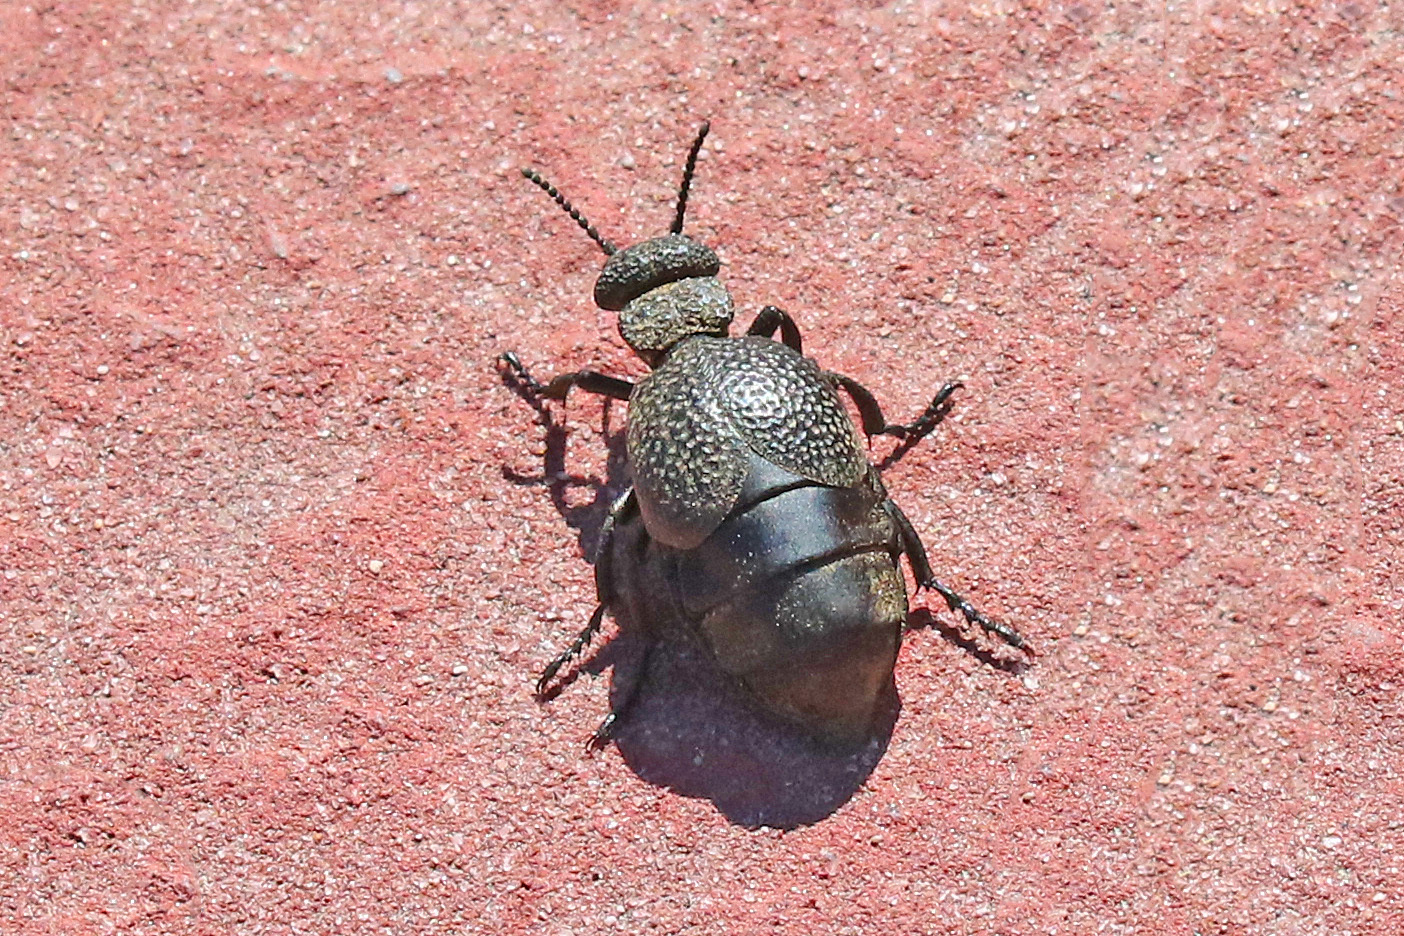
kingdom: Animalia
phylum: Arthropoda
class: Insecta
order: Coleoptera
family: Meloidae
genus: Meloe
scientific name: Meloe tuccius
